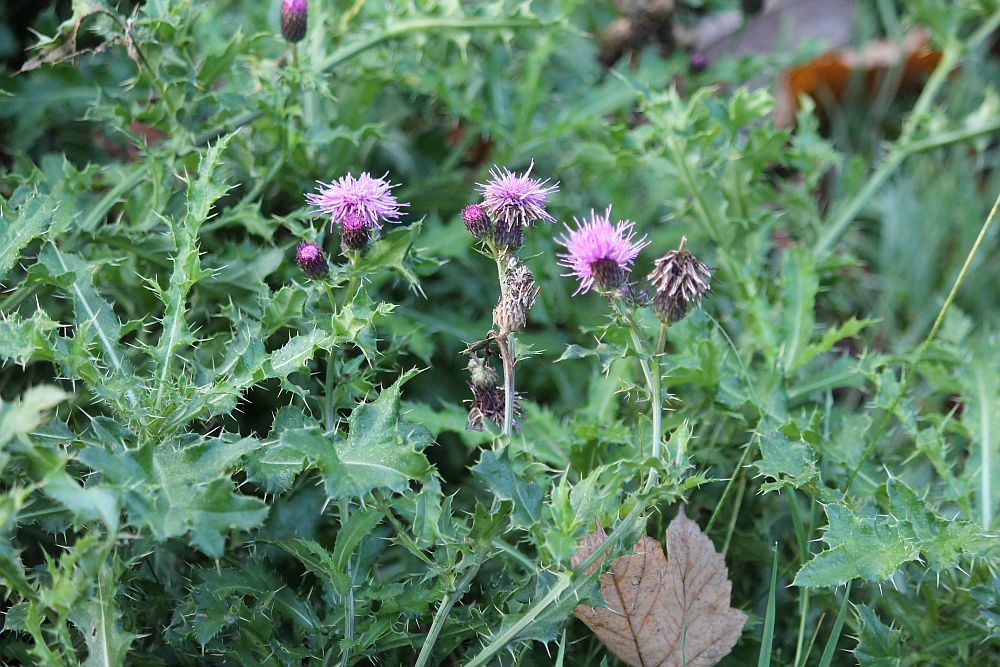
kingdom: Plantae
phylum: Tracheophyta
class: Magnoliopsida
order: Asterales
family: Asteraceae
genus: Cirsium
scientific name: Cirsium arvense
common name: Creeping thistle
